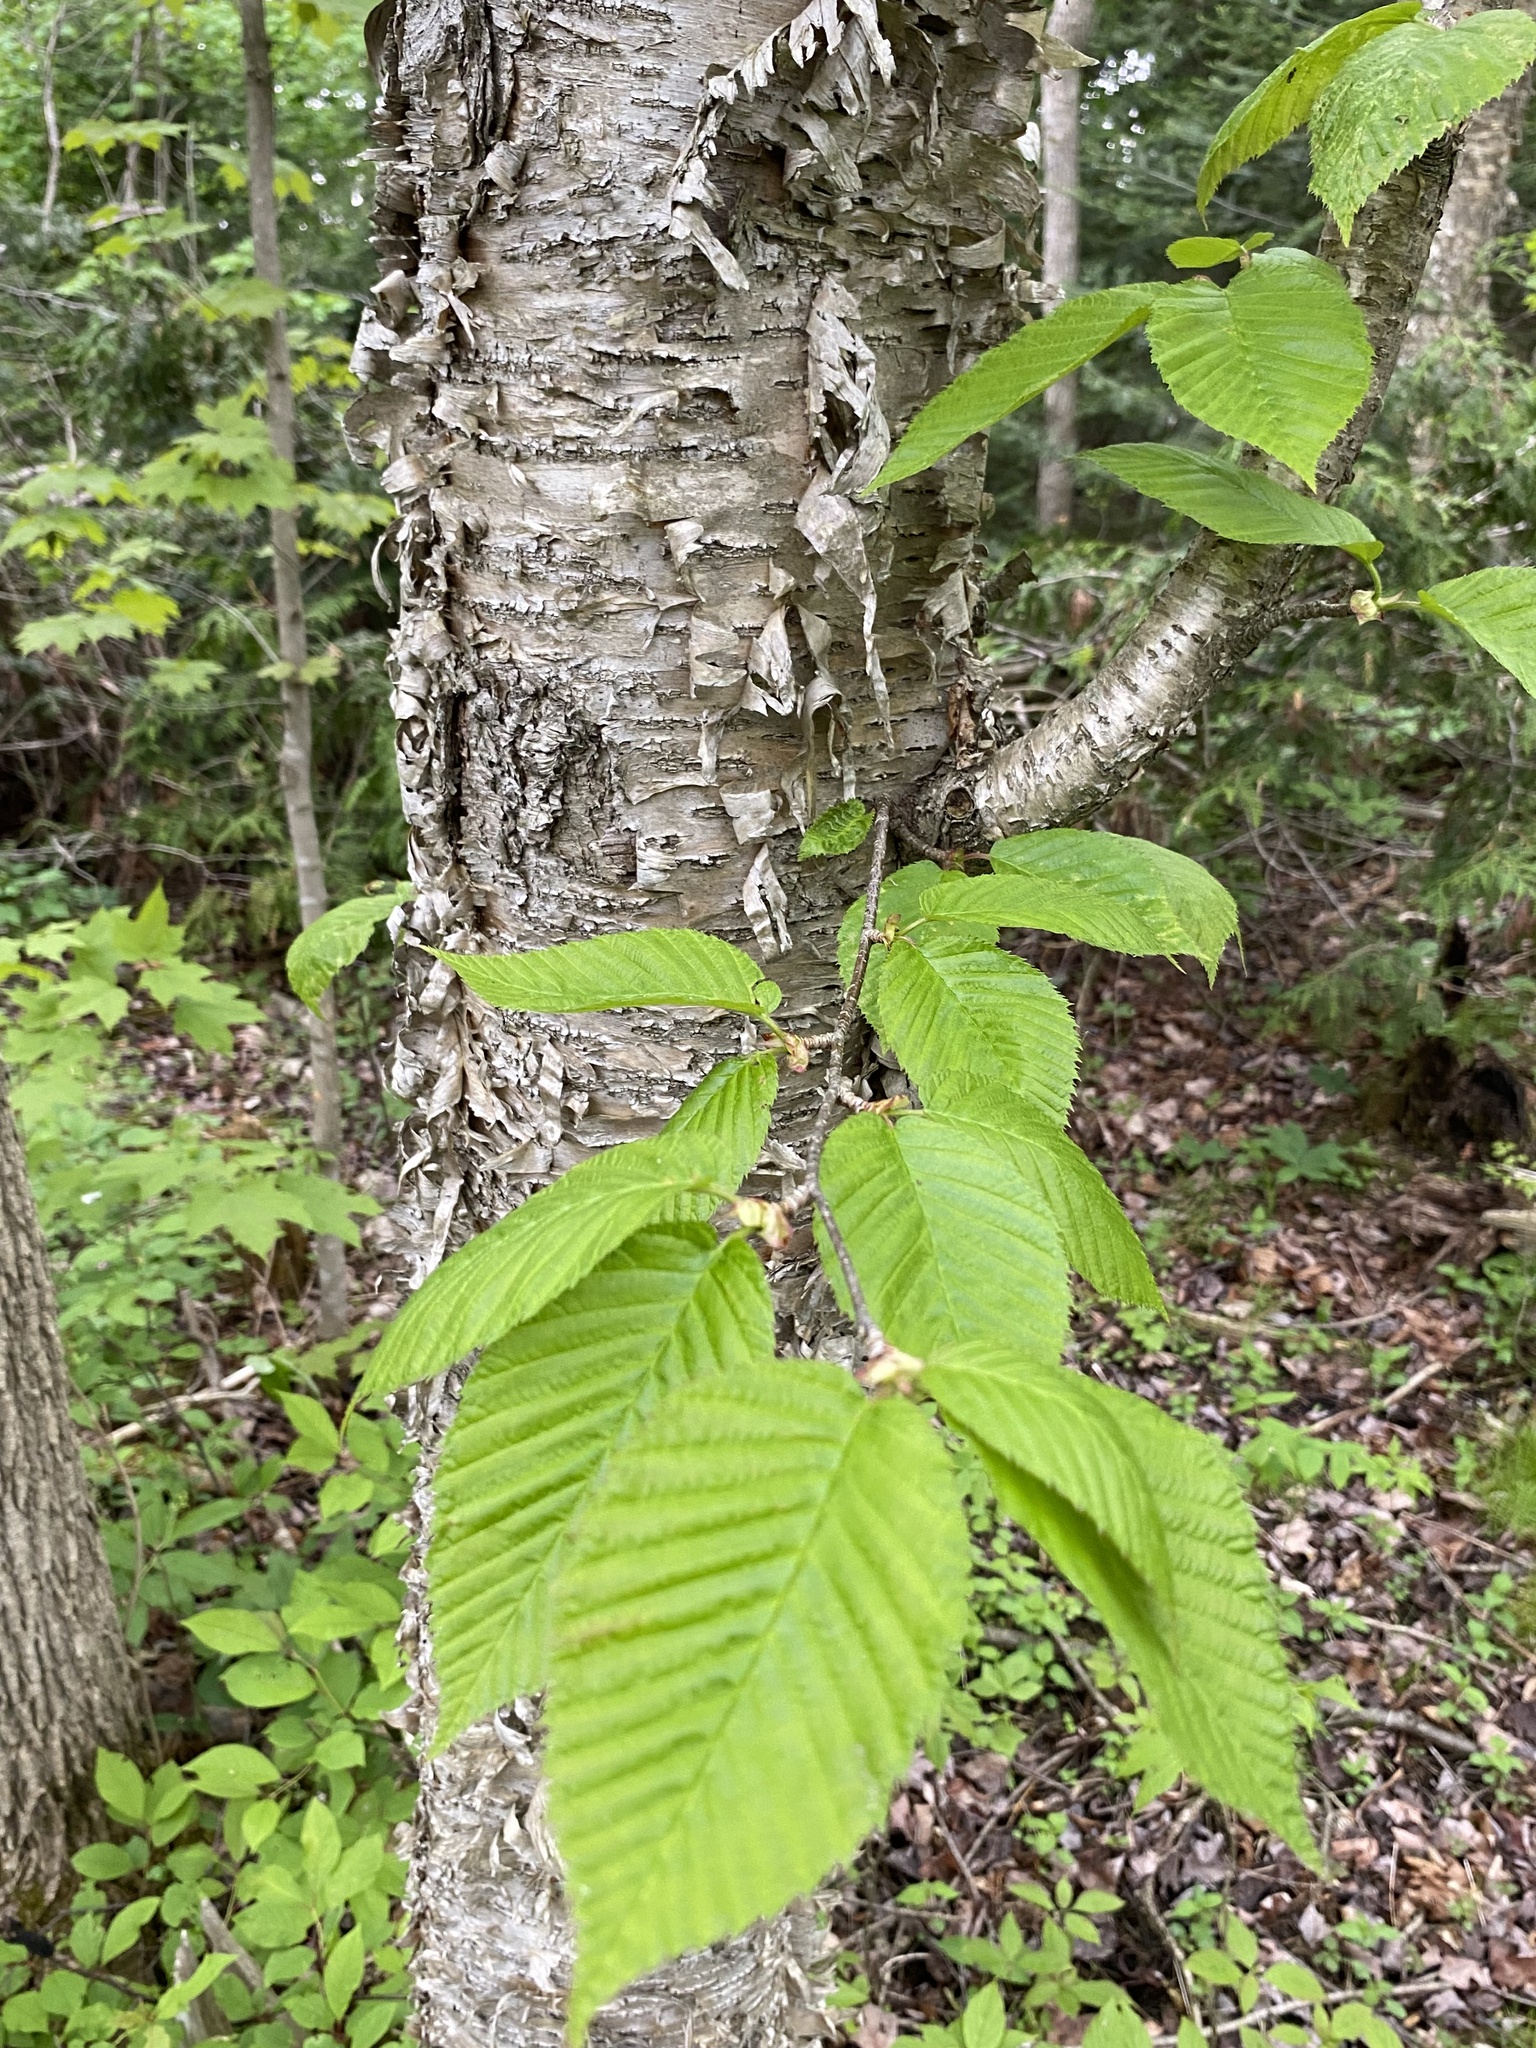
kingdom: Plantae
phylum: Tracheophyta
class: Magnoliopsida
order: Fagales
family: Betulaceae
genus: Betula
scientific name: Betula alleghaniensis
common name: Yellow birch
